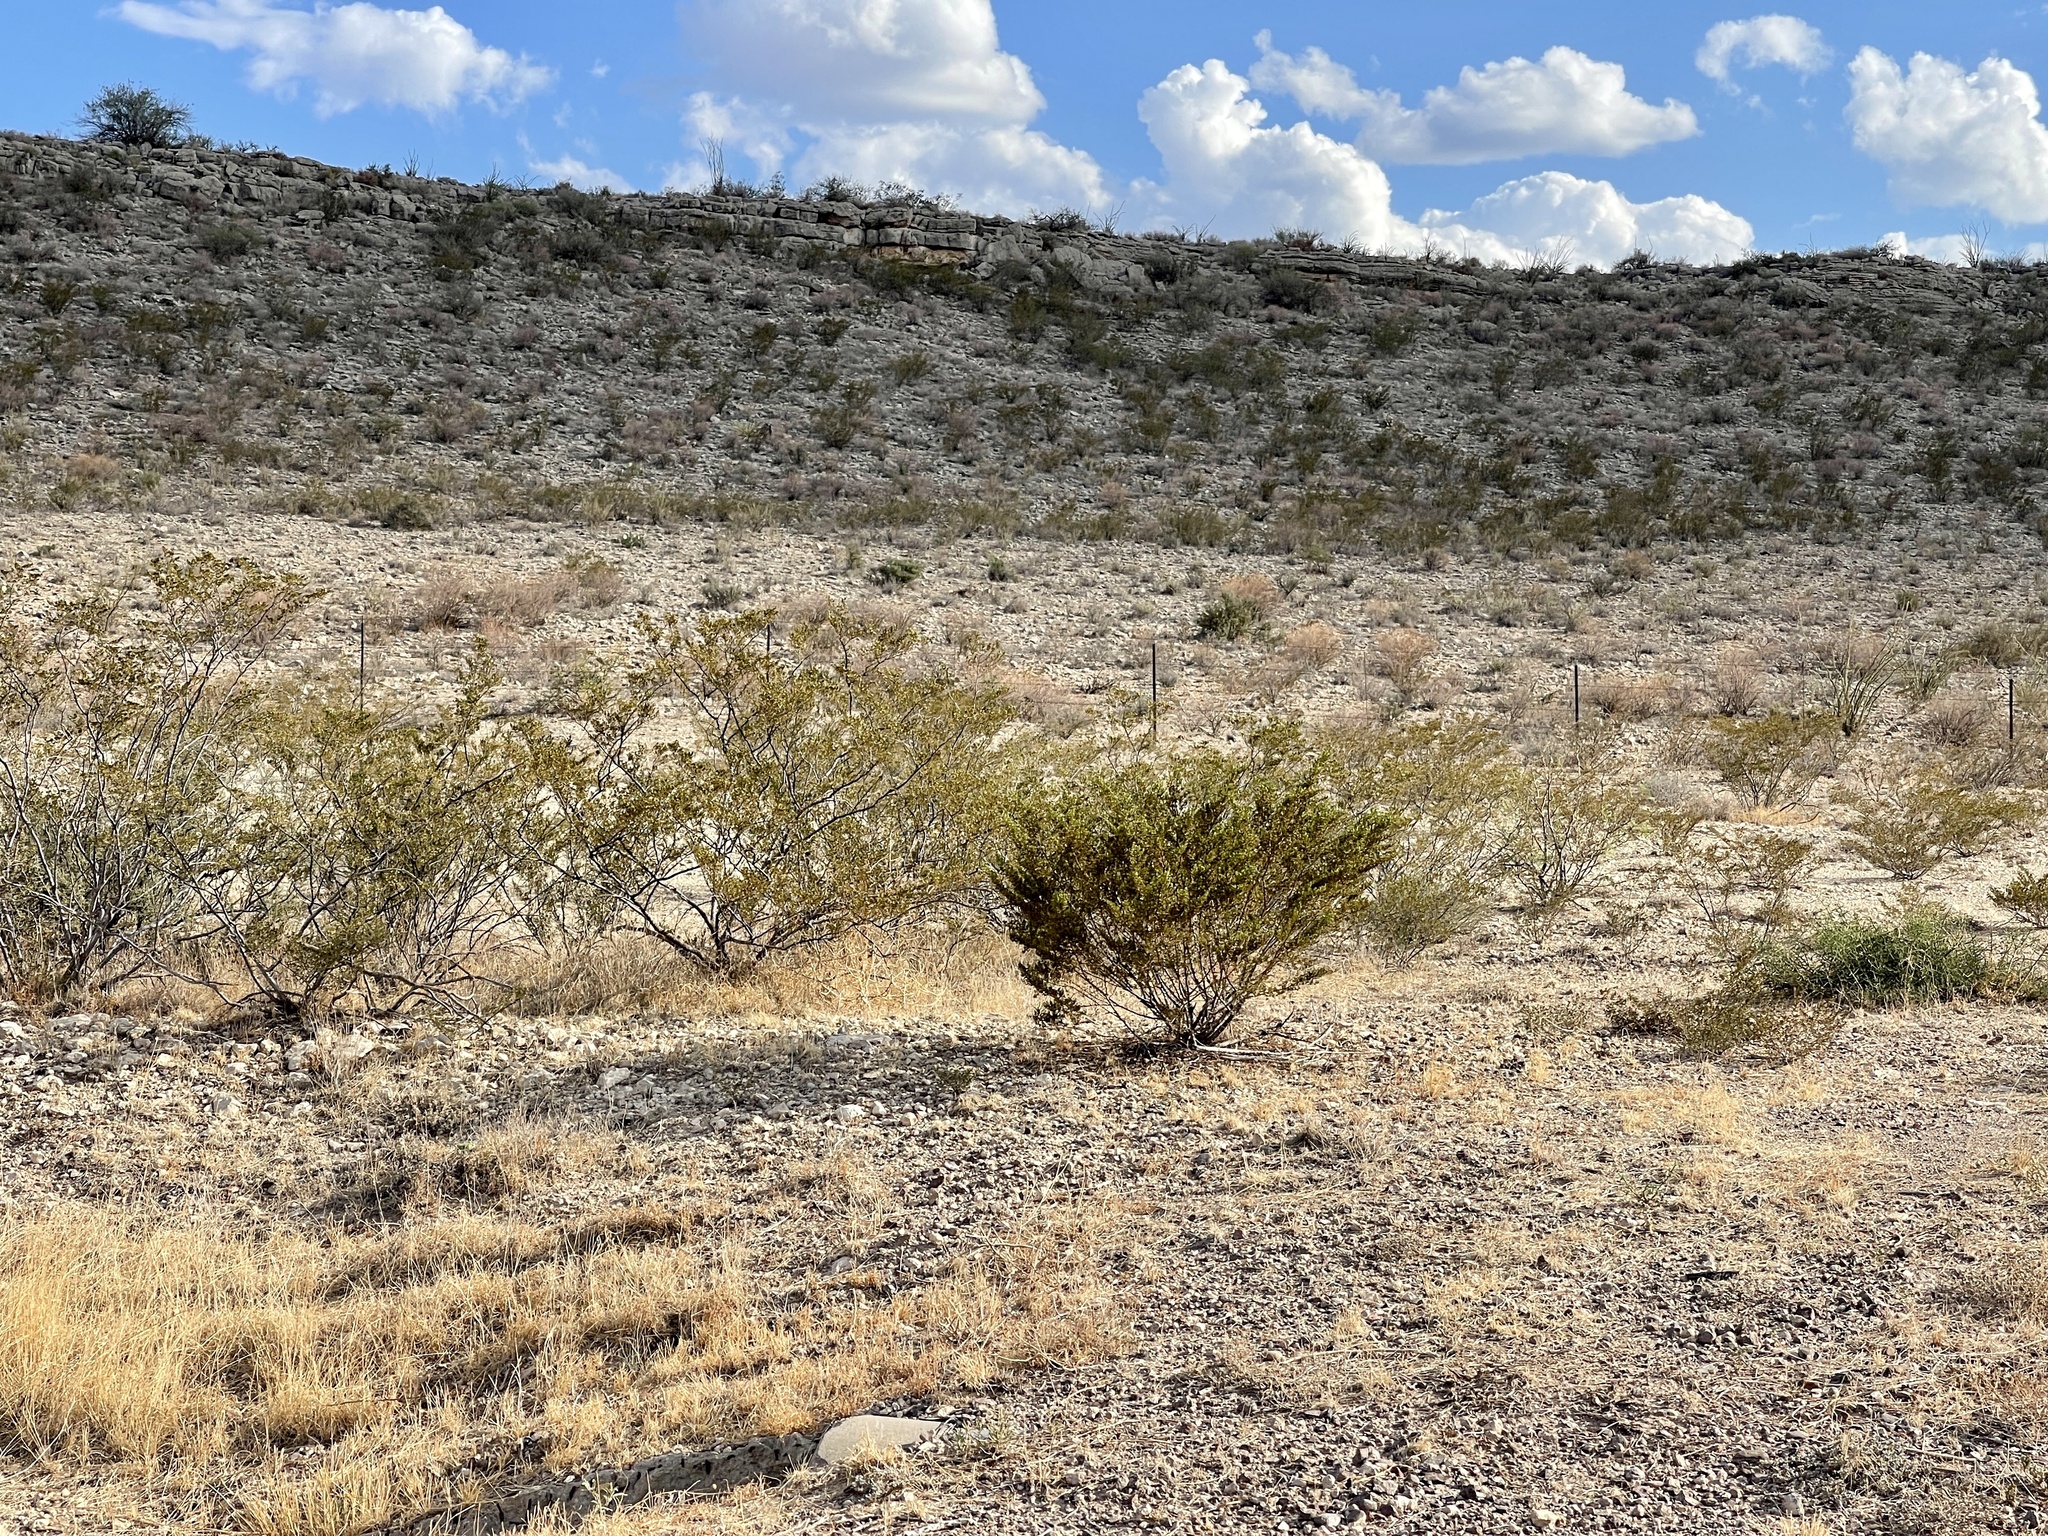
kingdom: Plantae
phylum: Tracheophyta
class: Magnoliopsida
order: Zygophyllales
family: Zygophyllaceae
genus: Larrea
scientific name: Larrea tridentata
